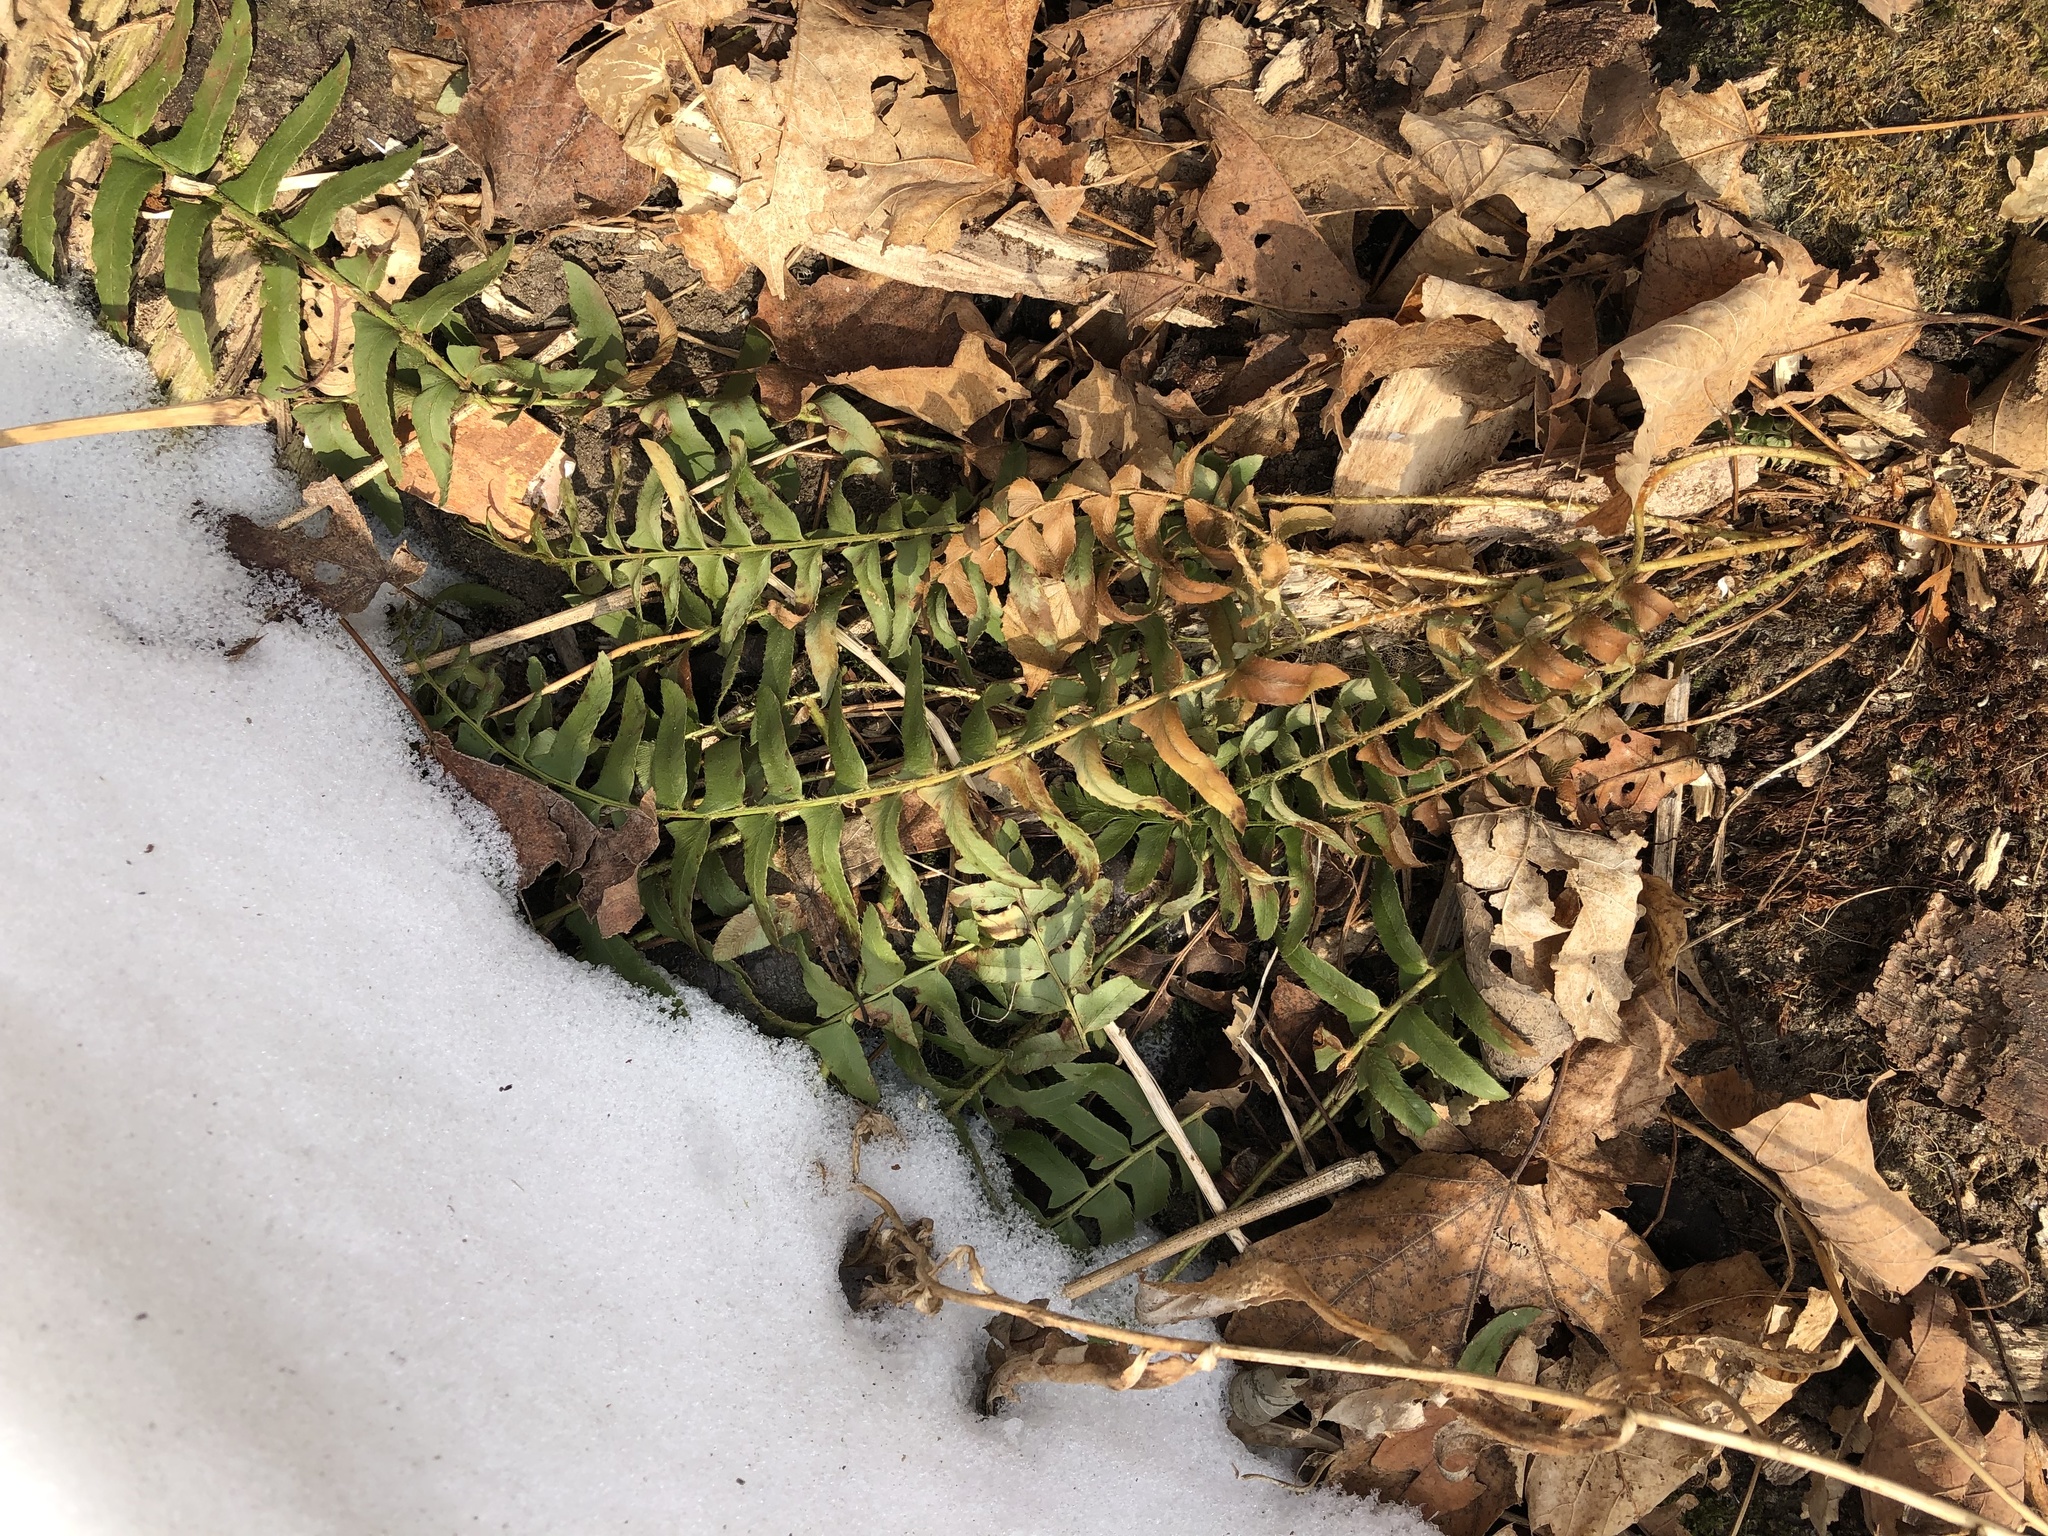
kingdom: Plantae
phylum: Tracheophyta
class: Polypodiopsida
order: Polypodiales
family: Dryopteridaceae
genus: Polystichum
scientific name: Polystichum acrostichoides
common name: Christmas fern
